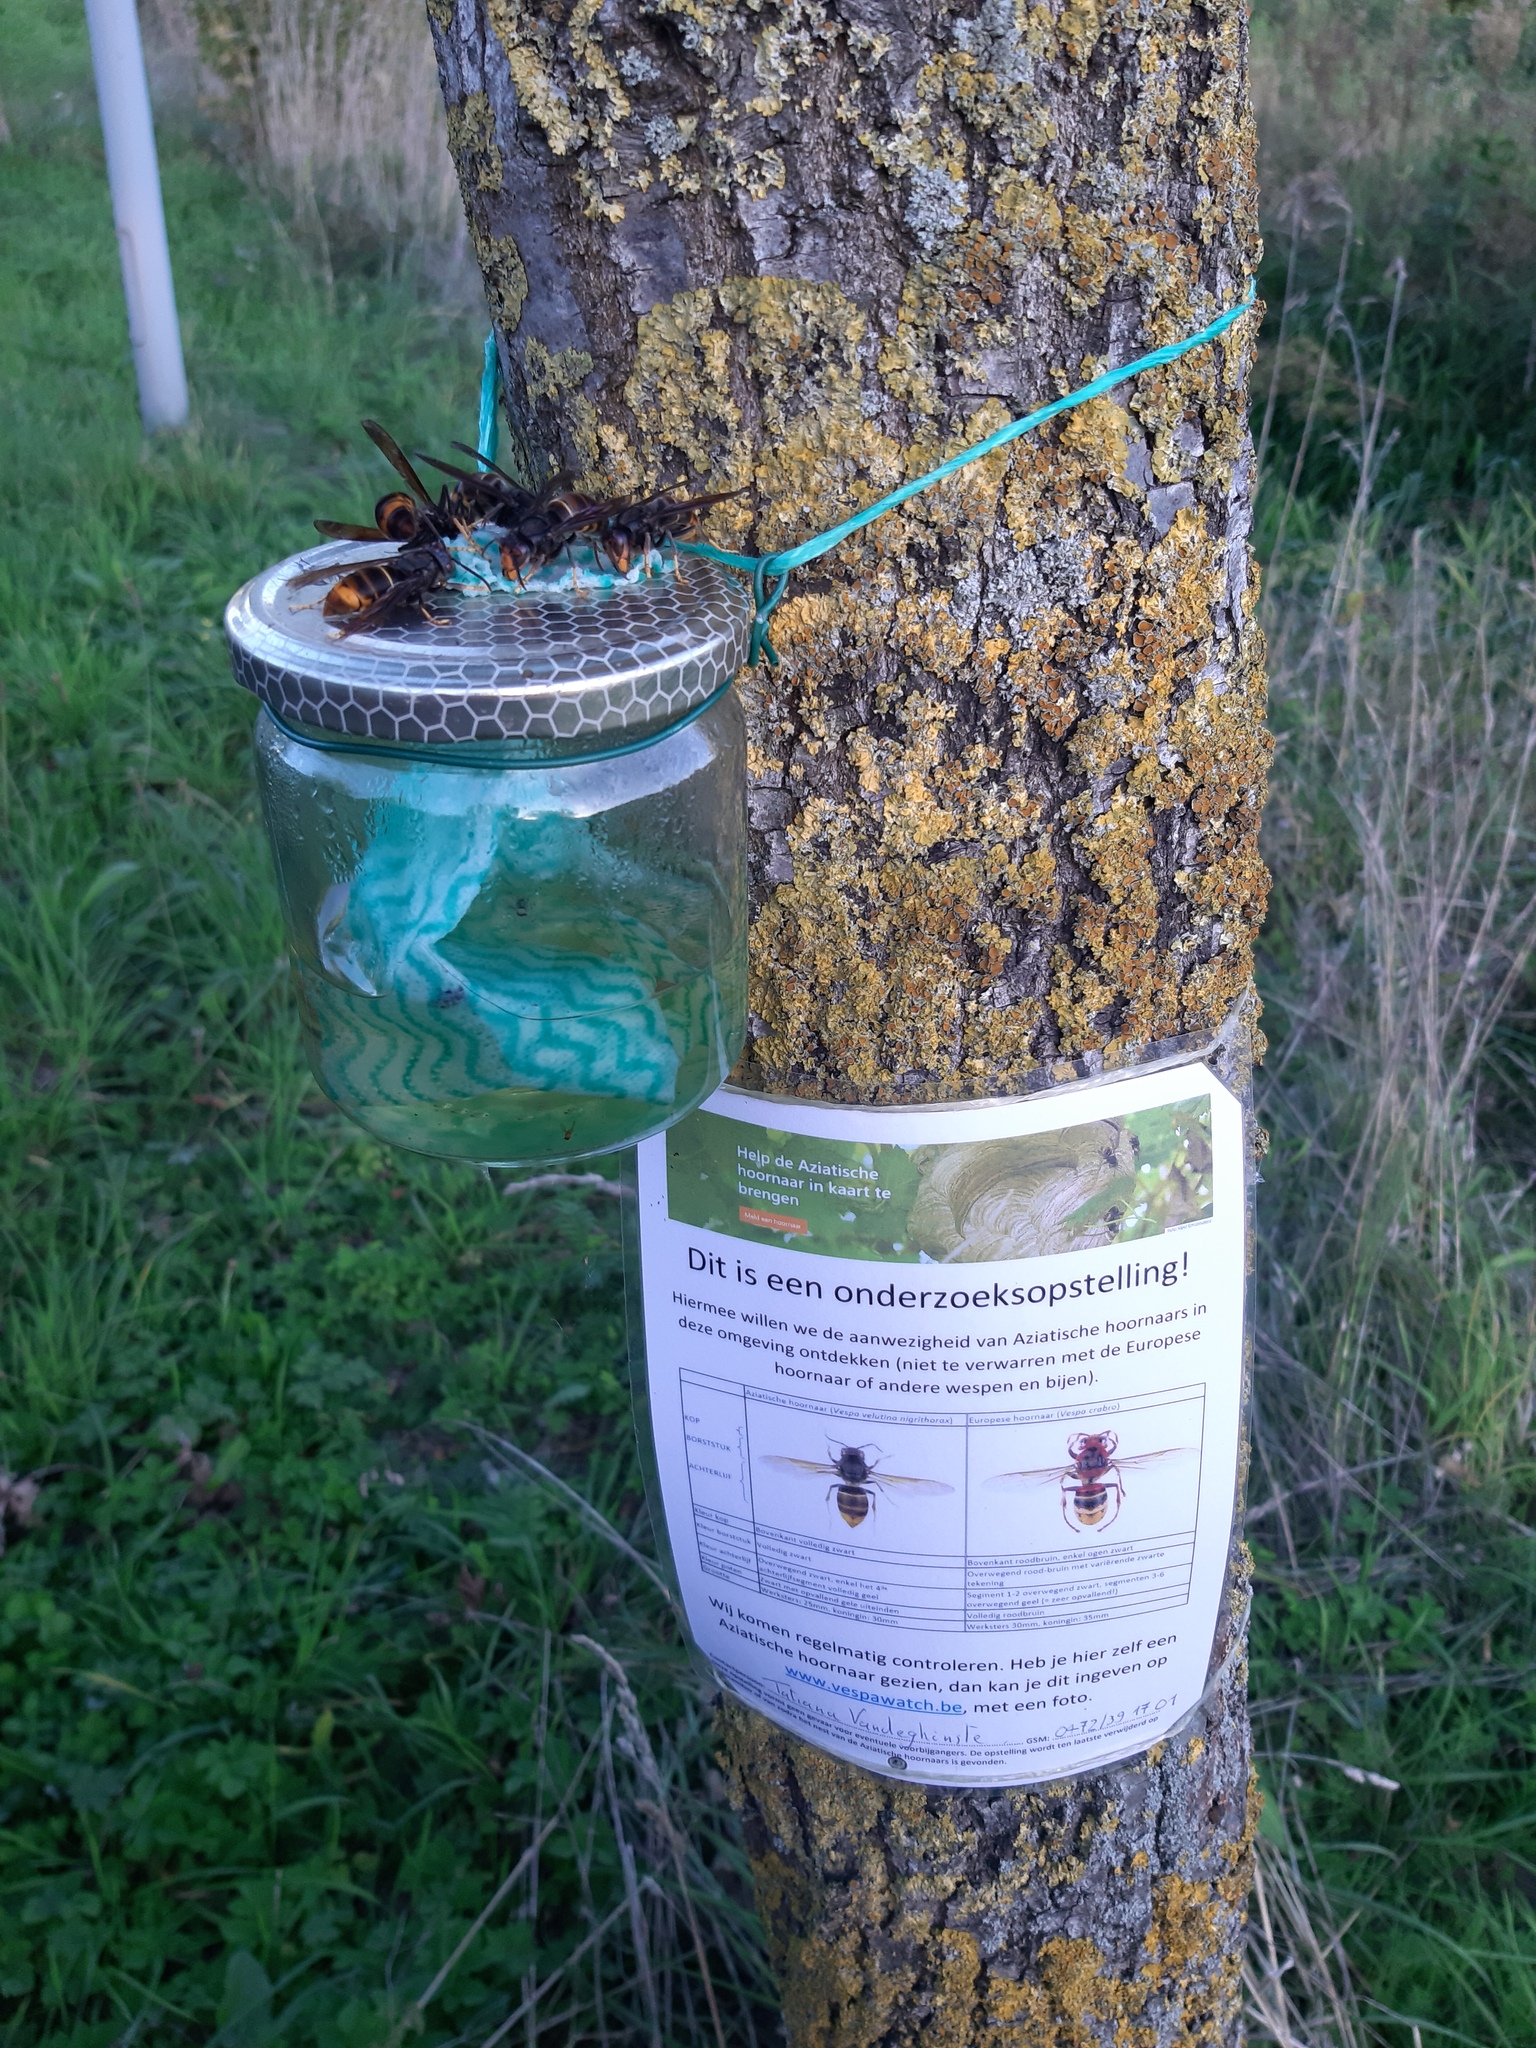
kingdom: Animalia
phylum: Arthropoda
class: Insecta
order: Hymenoptera
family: Vespidae
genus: Vespa
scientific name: Vespa velutina
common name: Asian hornet
